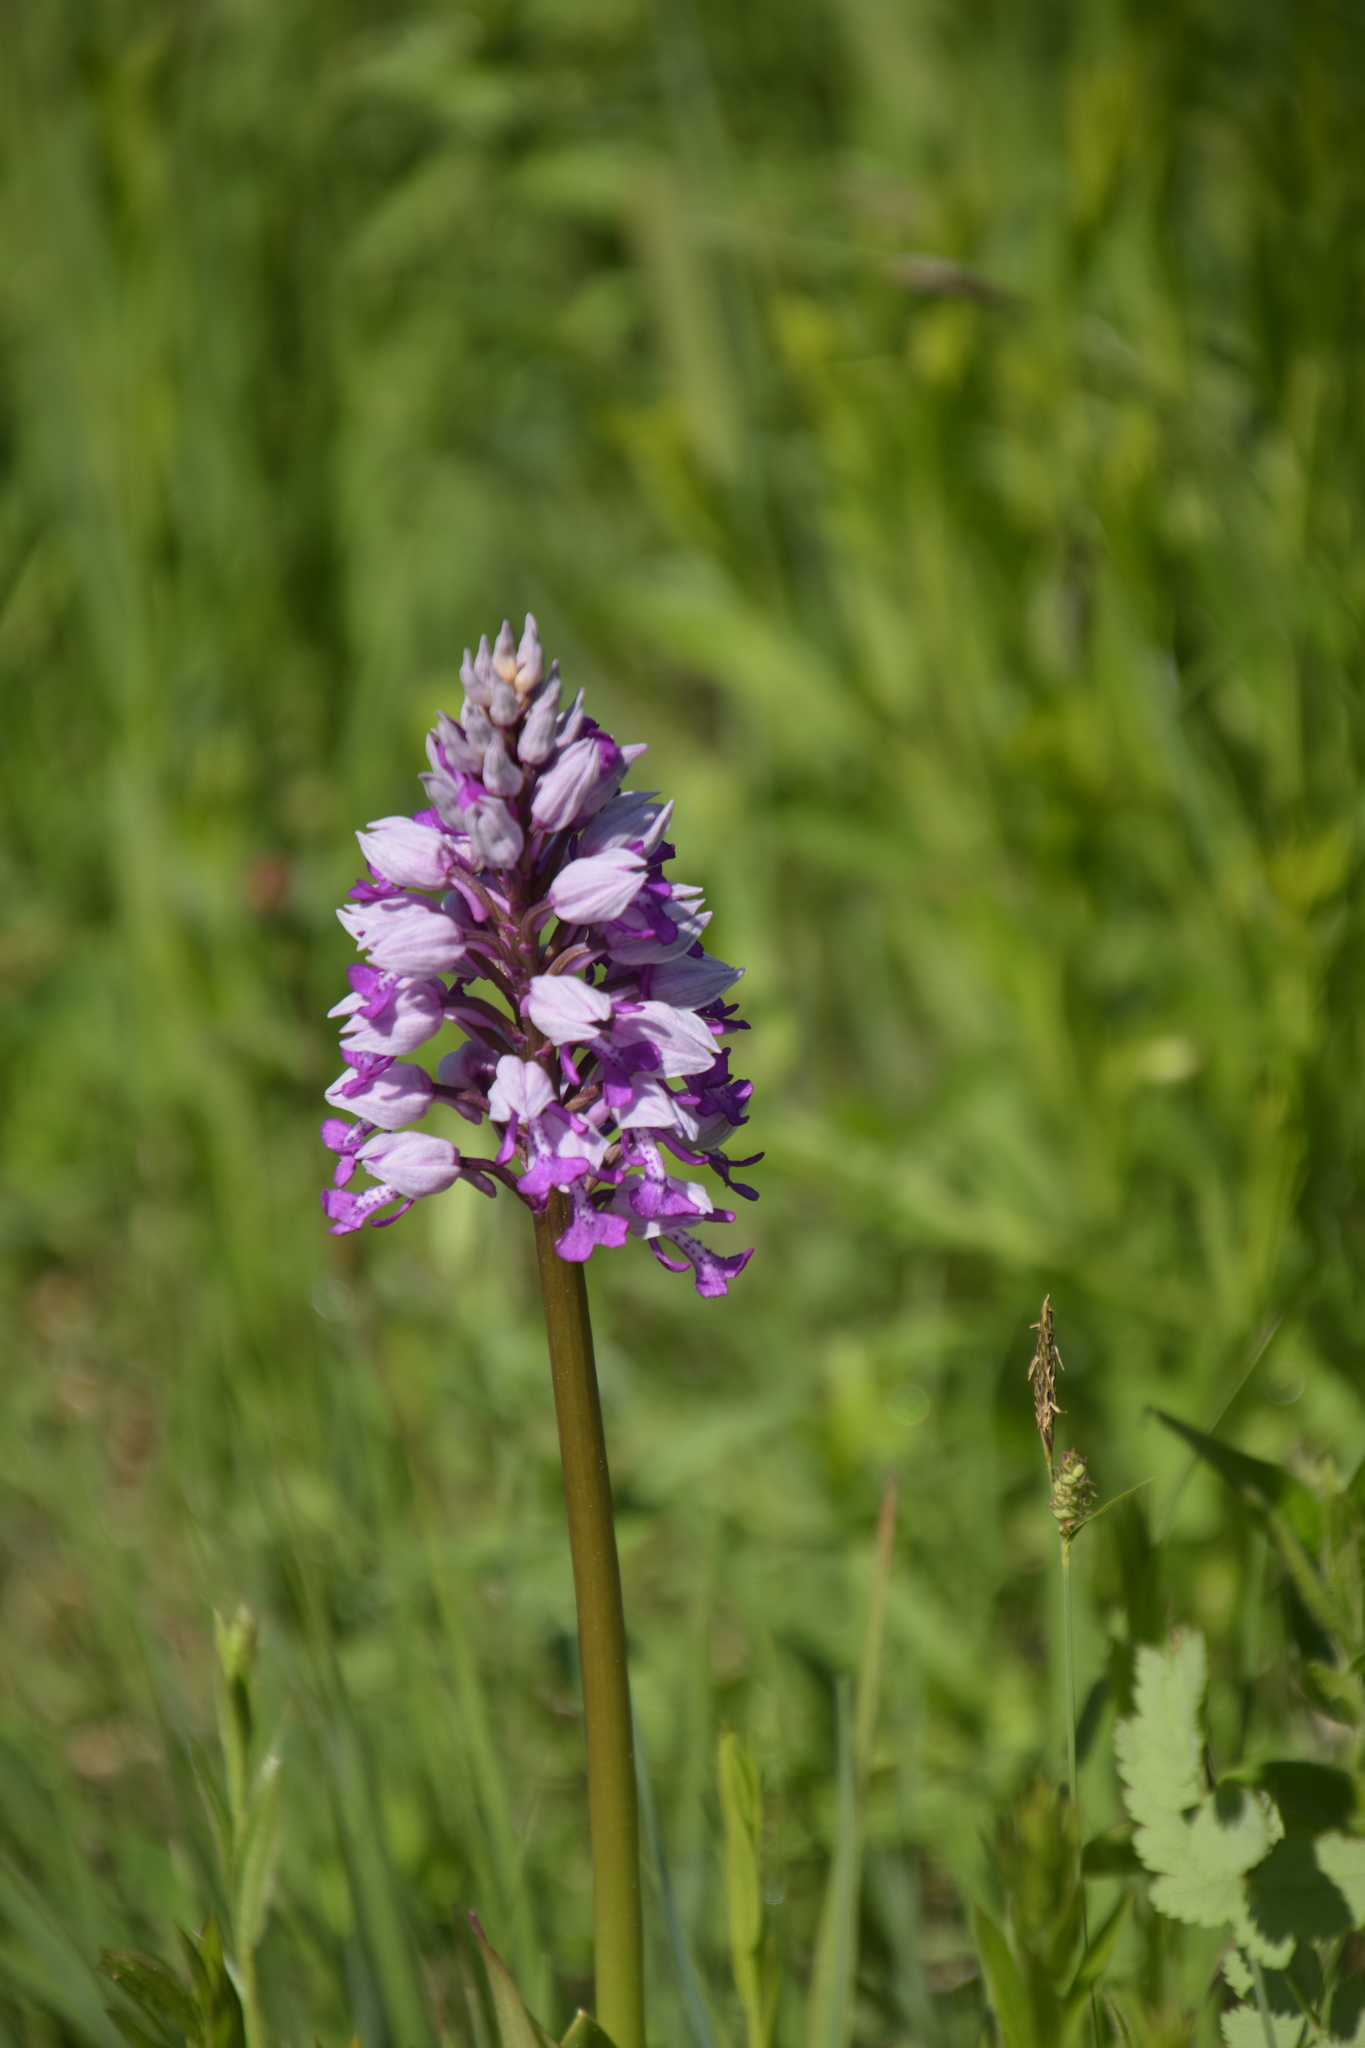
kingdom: Plantae
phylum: Tracheophyta
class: Liliopsida
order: Asparagales
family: Orchidaceae
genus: Orchis
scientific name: Orchis militaris
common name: Military orchid
